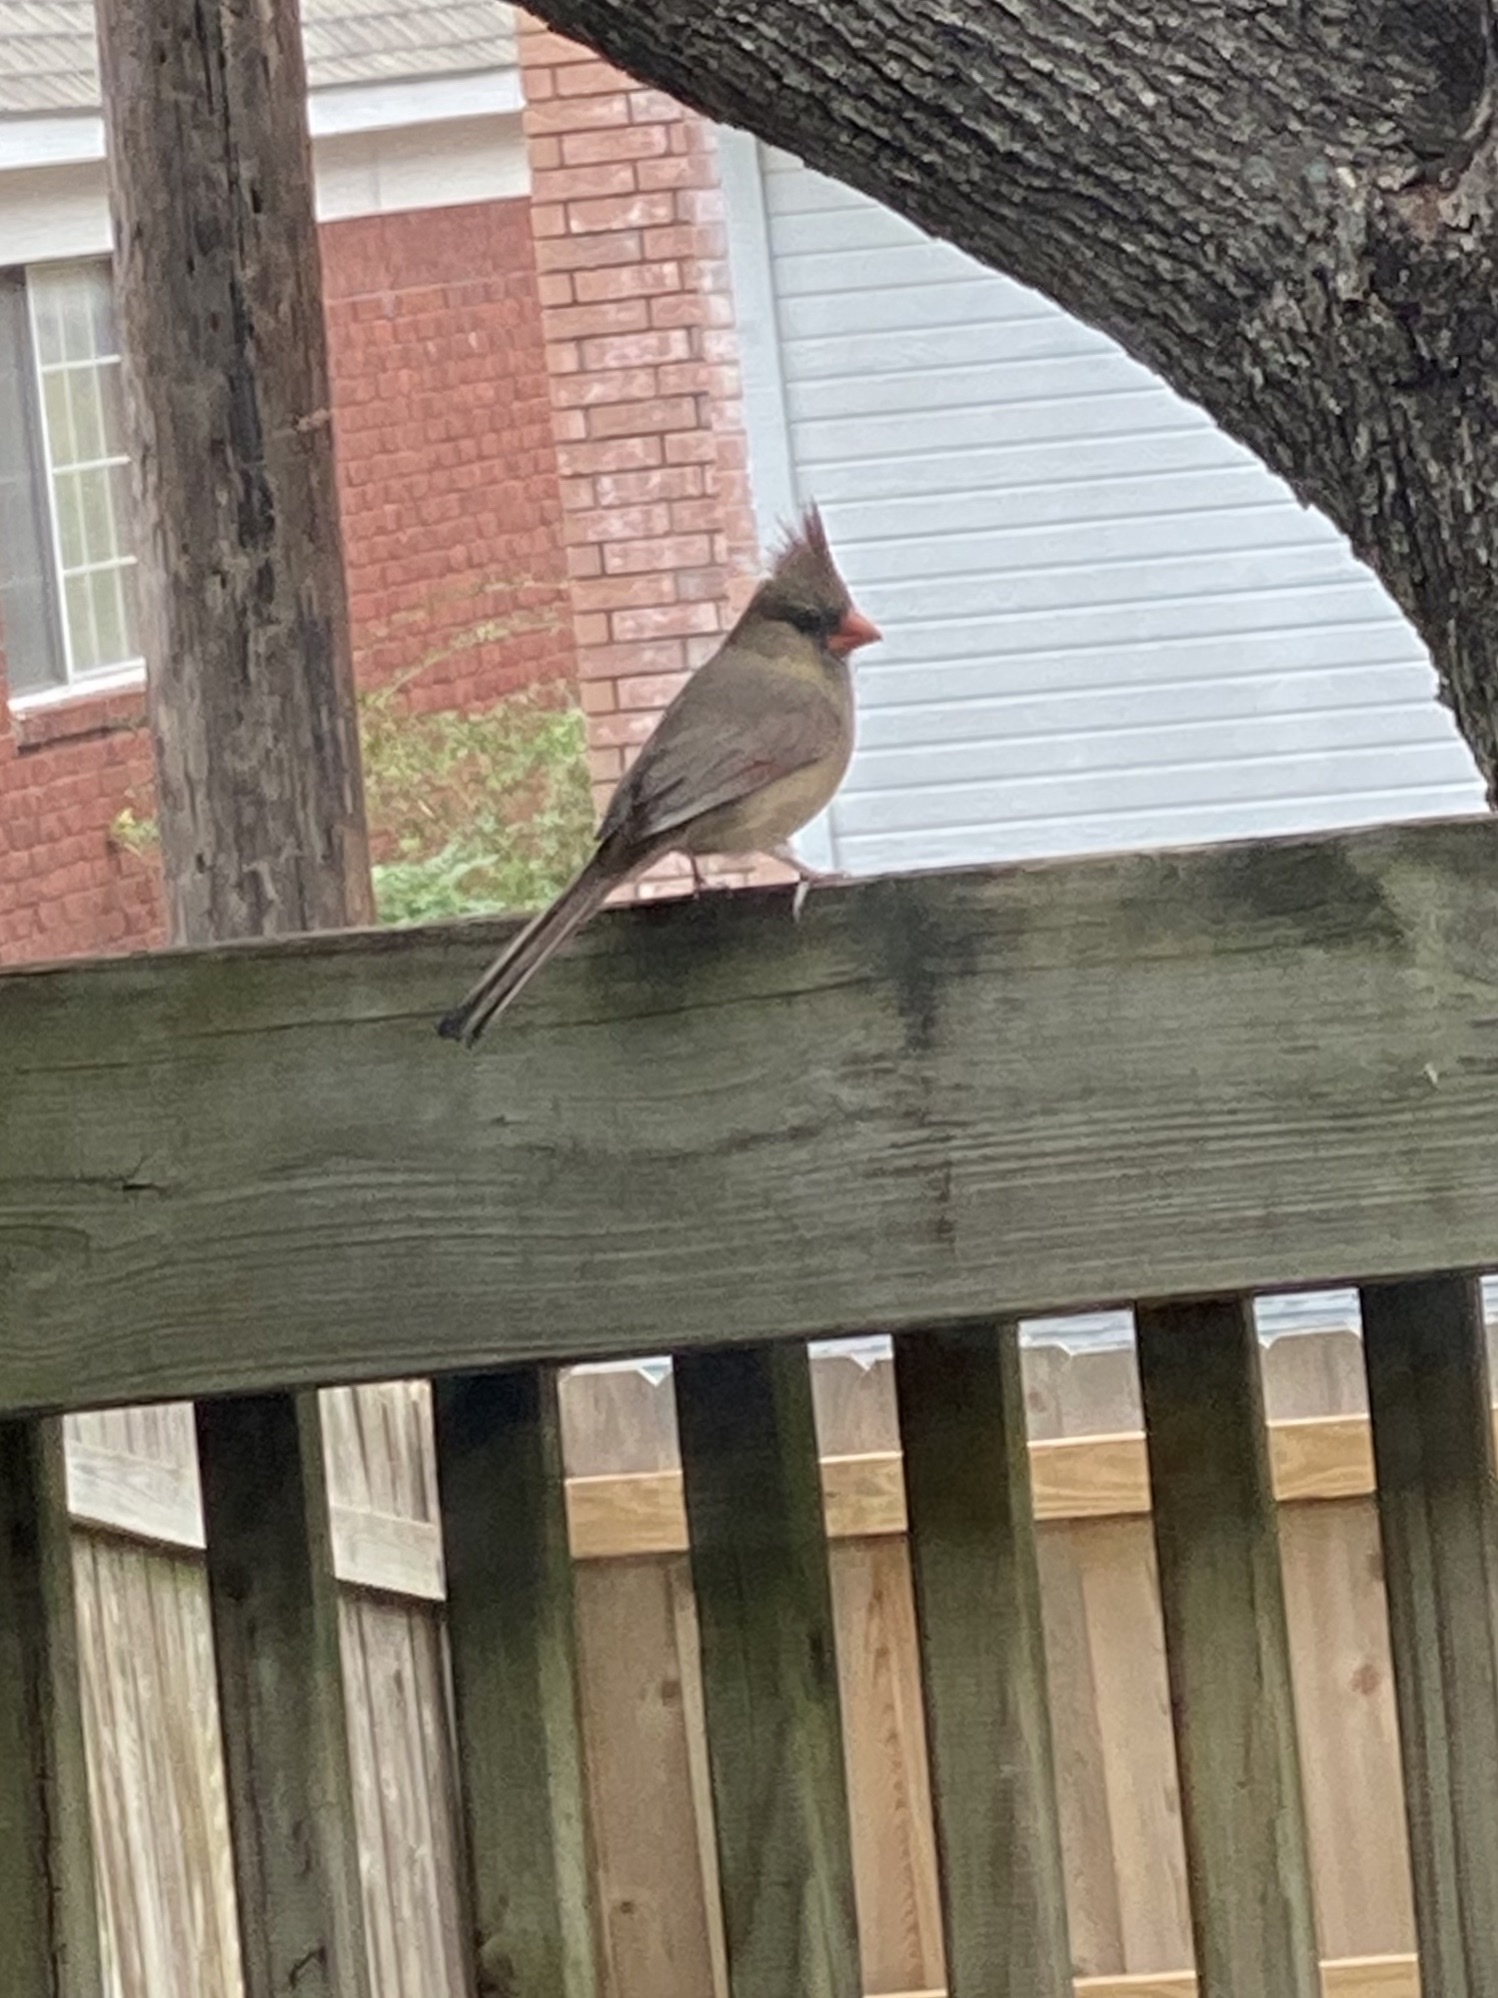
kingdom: Animalia
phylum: Chordata
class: Aves
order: Passeriformes
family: Cardinalidae
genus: Cardinalis
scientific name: Cardinalis cardinalis
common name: Northern cardinal
